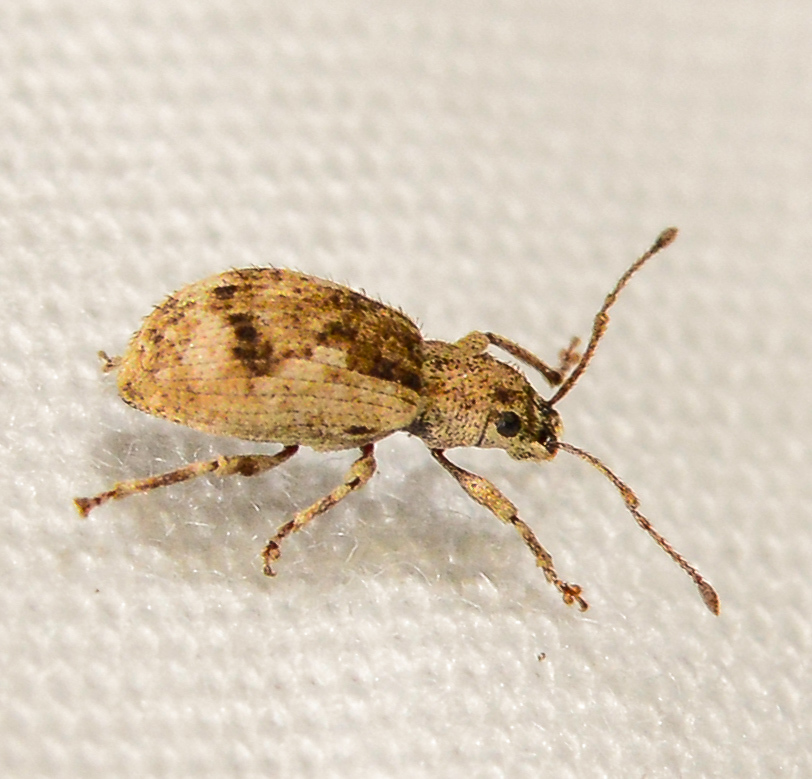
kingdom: Animalia
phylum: Arthropoda
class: Insecta
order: Coleoptera
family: Curculionidae
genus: Pseudoedophrys
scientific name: Pseudoedophrys hilleri
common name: Weevil
